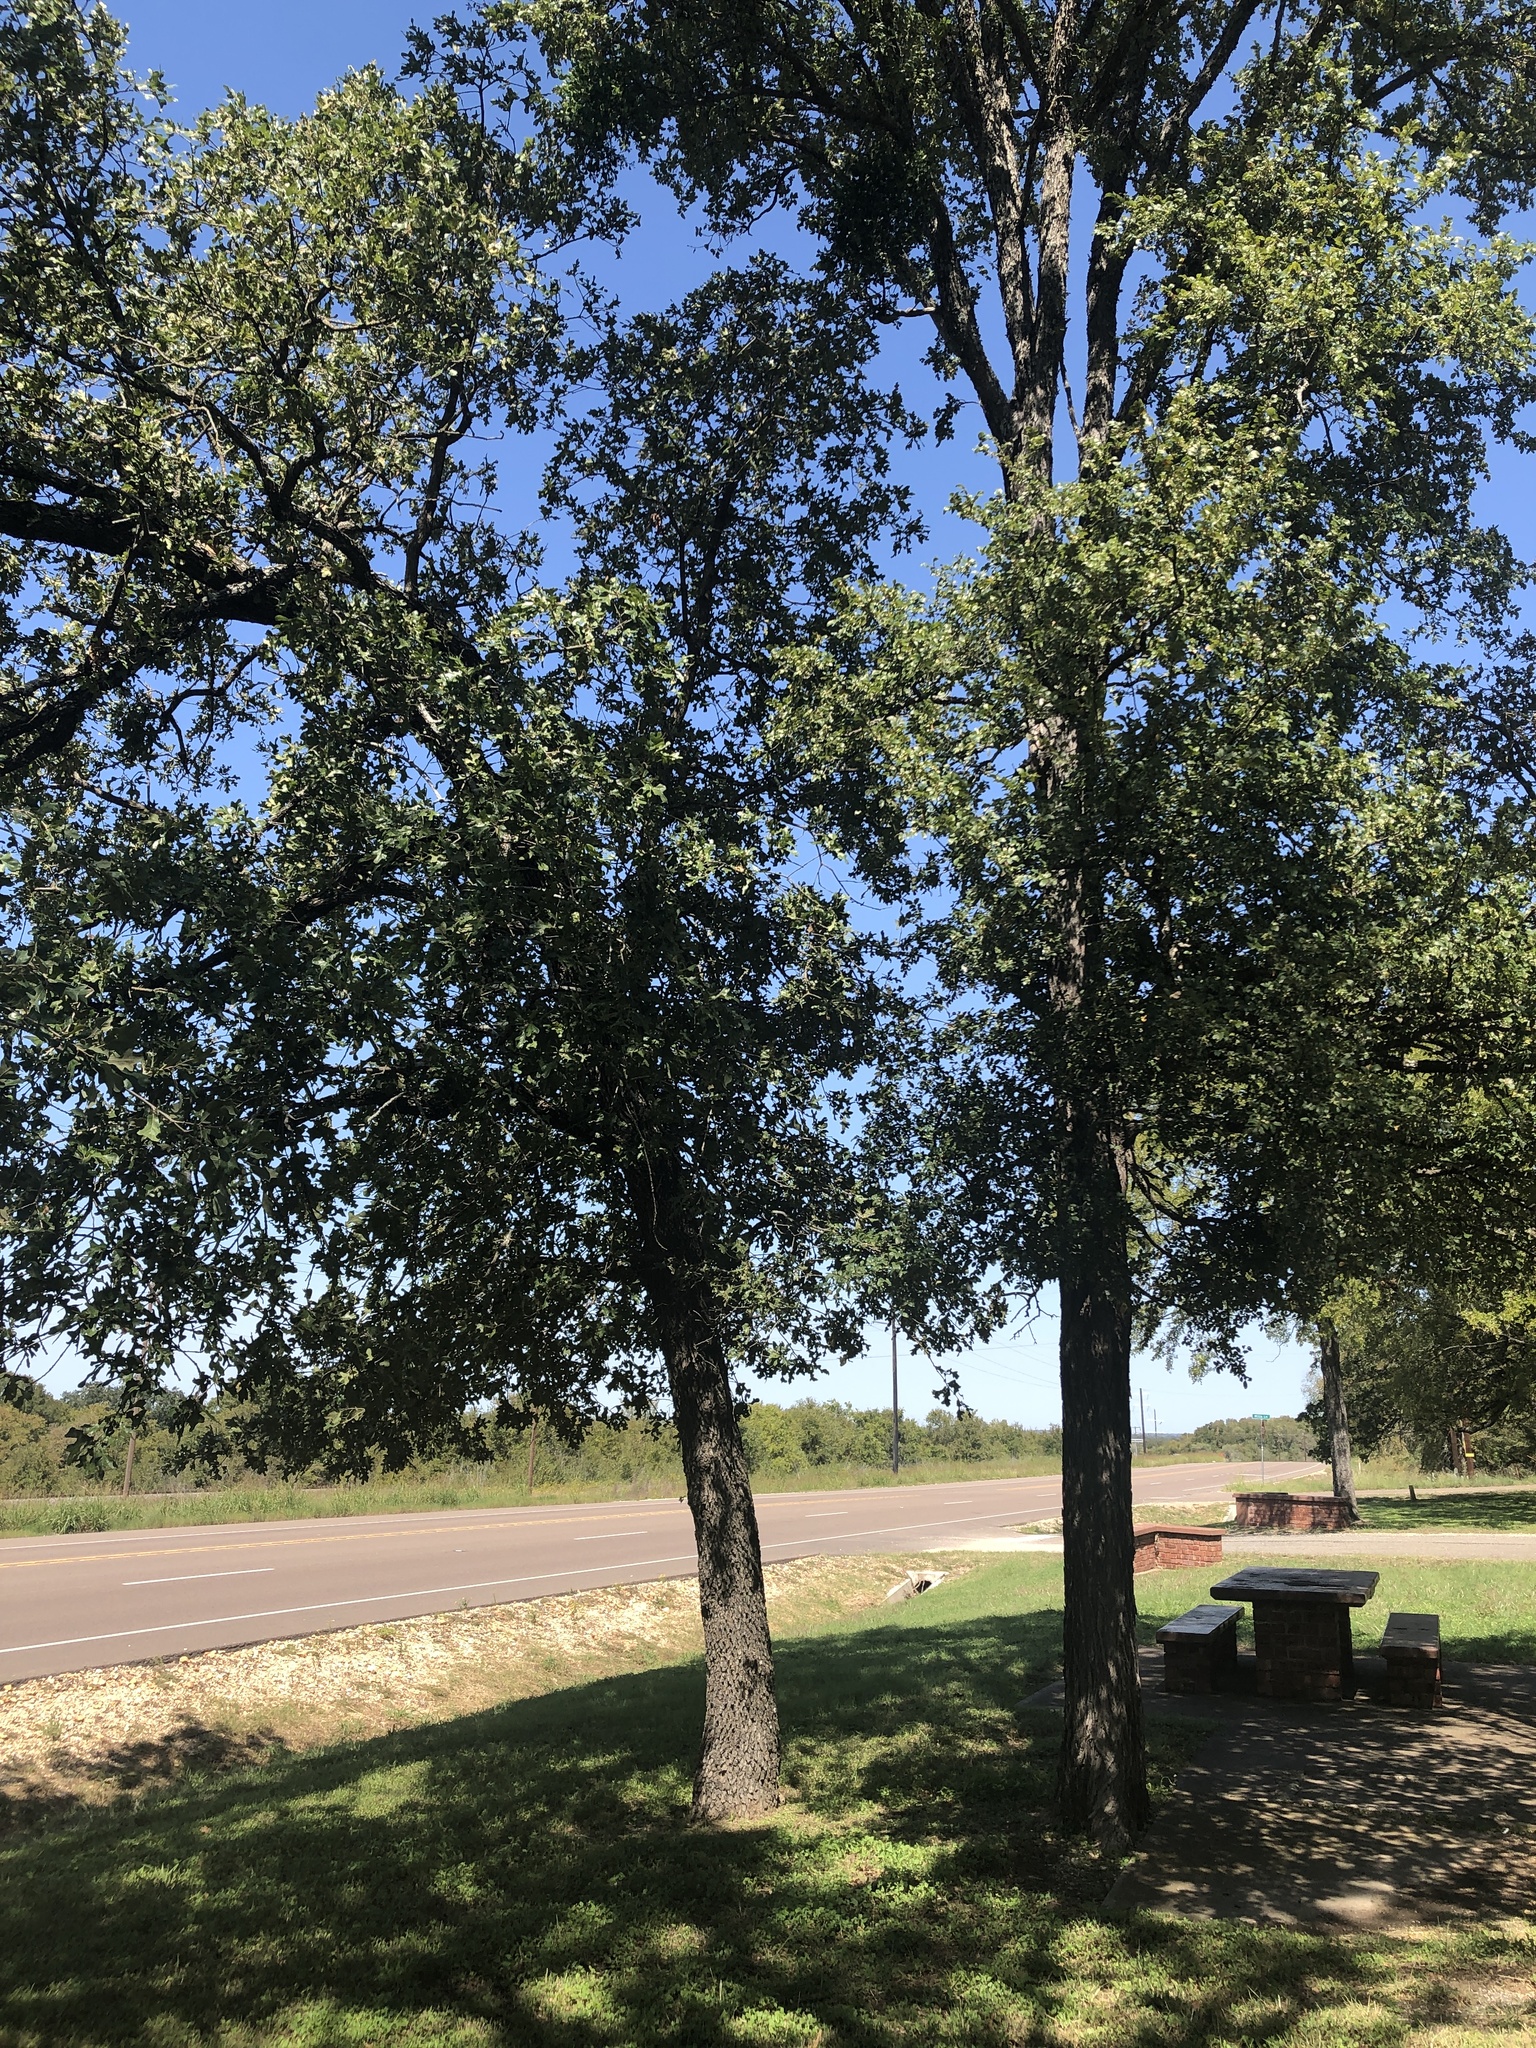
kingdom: Plantae
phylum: Tracheophyta
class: Magnoliopsida
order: Fagales
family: Fagaceae
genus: Quercus
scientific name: Quercus stellata
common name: Post oak
